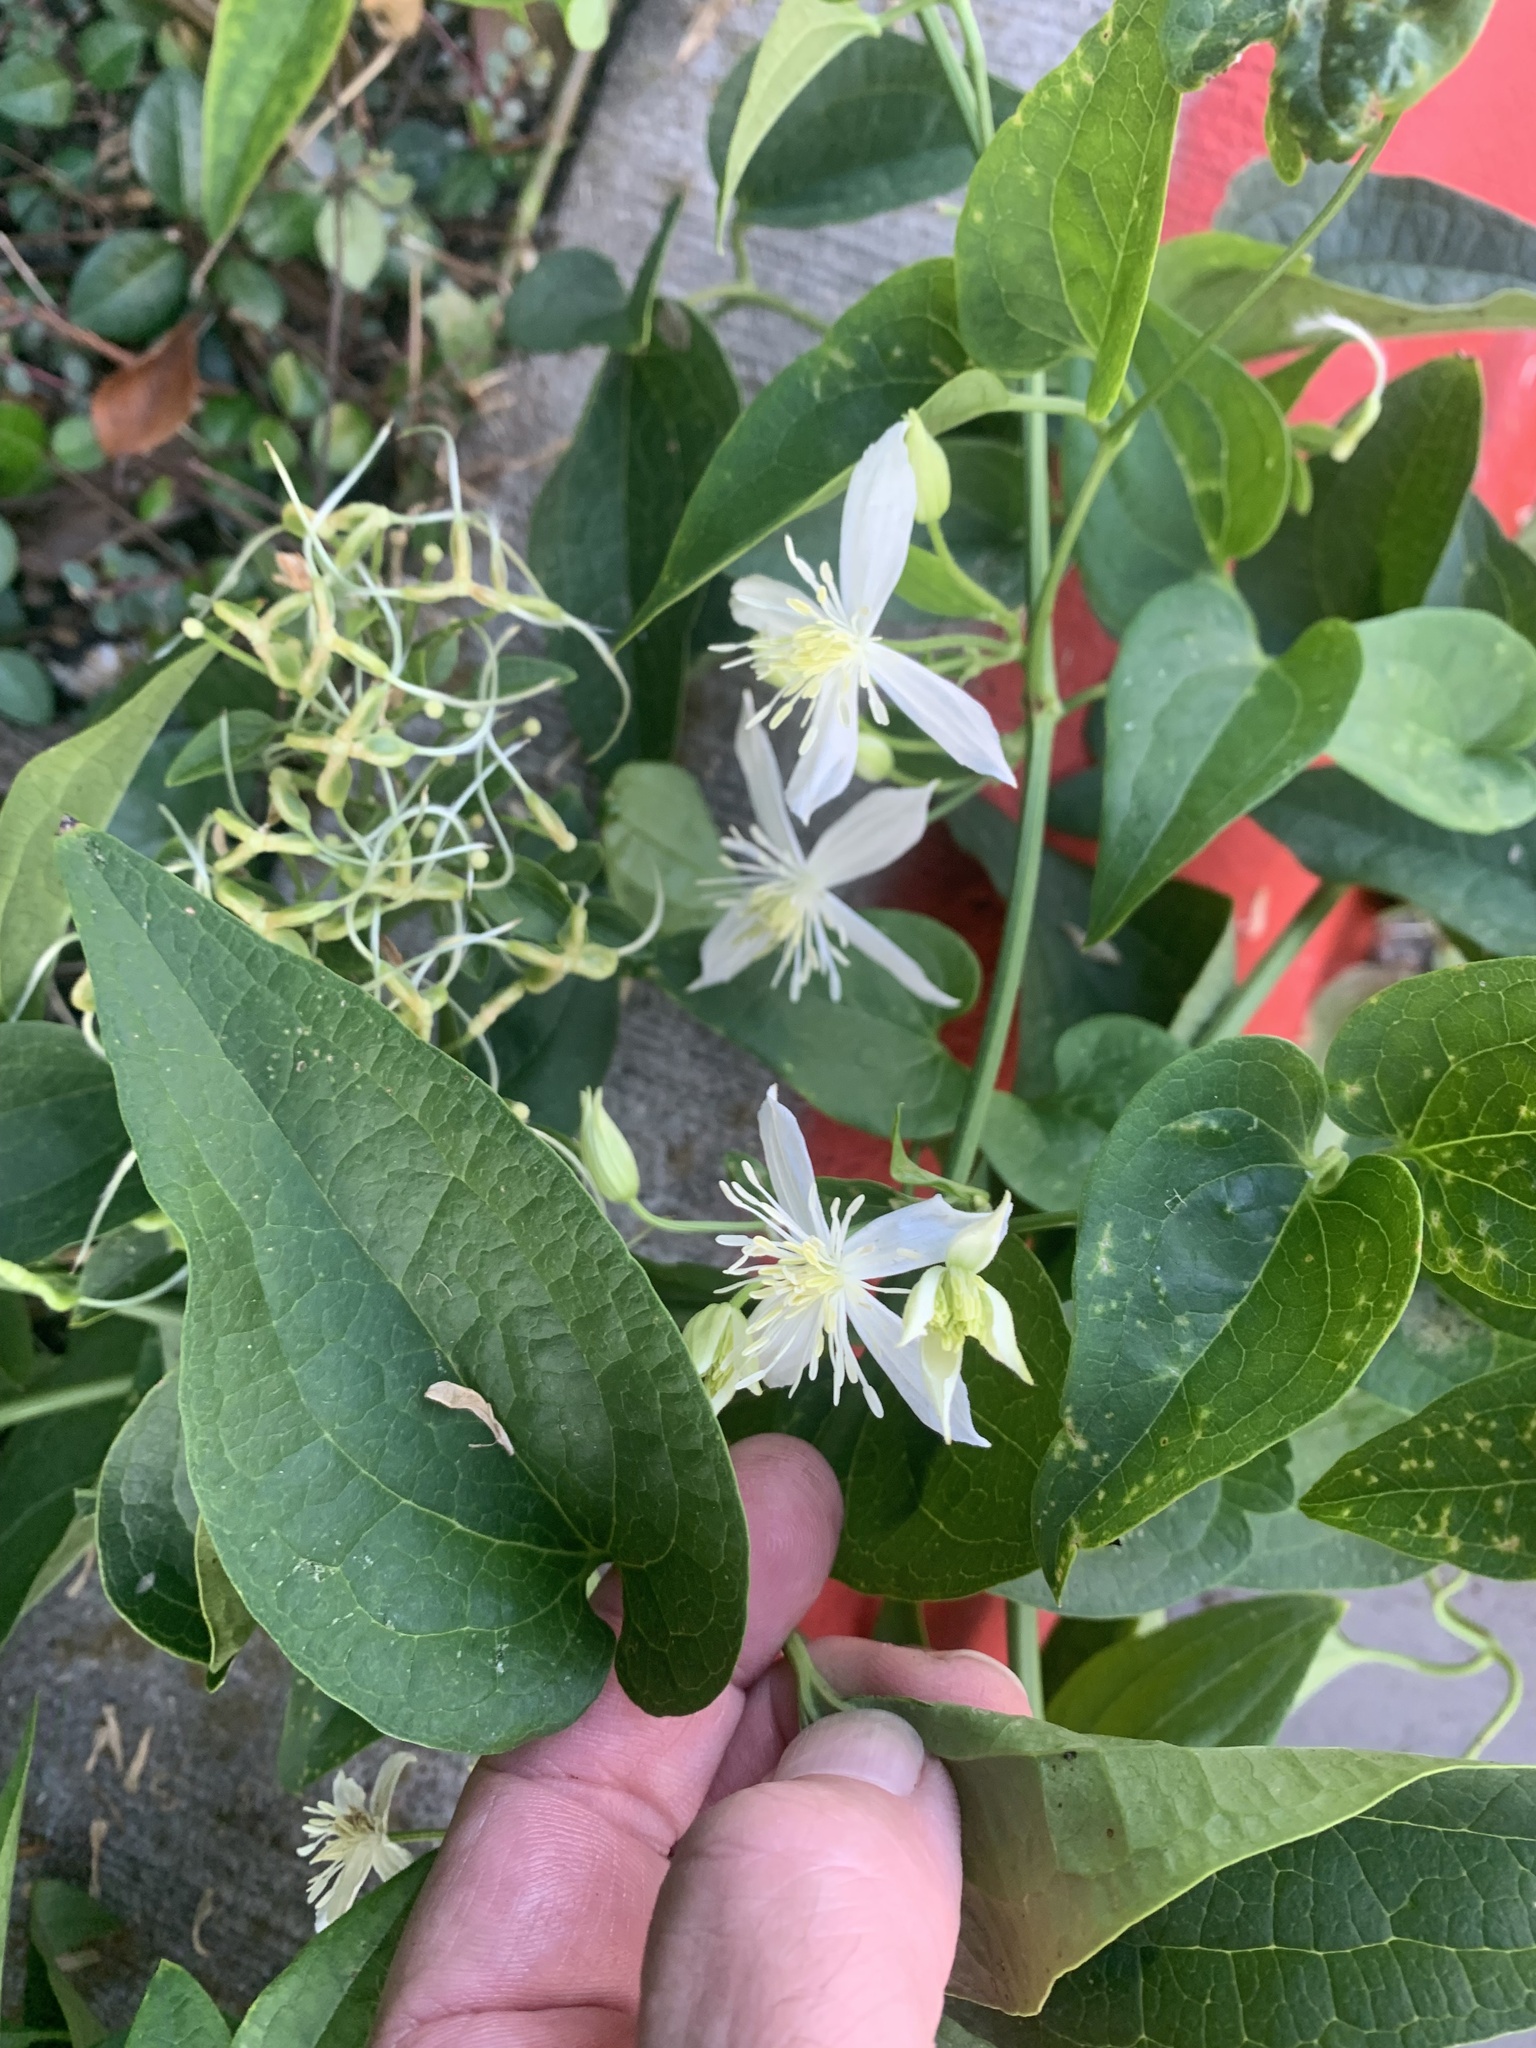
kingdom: Plantae
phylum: Tracheophyta
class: Magnoliopsida
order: Ranunculales
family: Ranunculaceae
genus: Clematis
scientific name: Clematis terniflora
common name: Sweet autumn clematis
